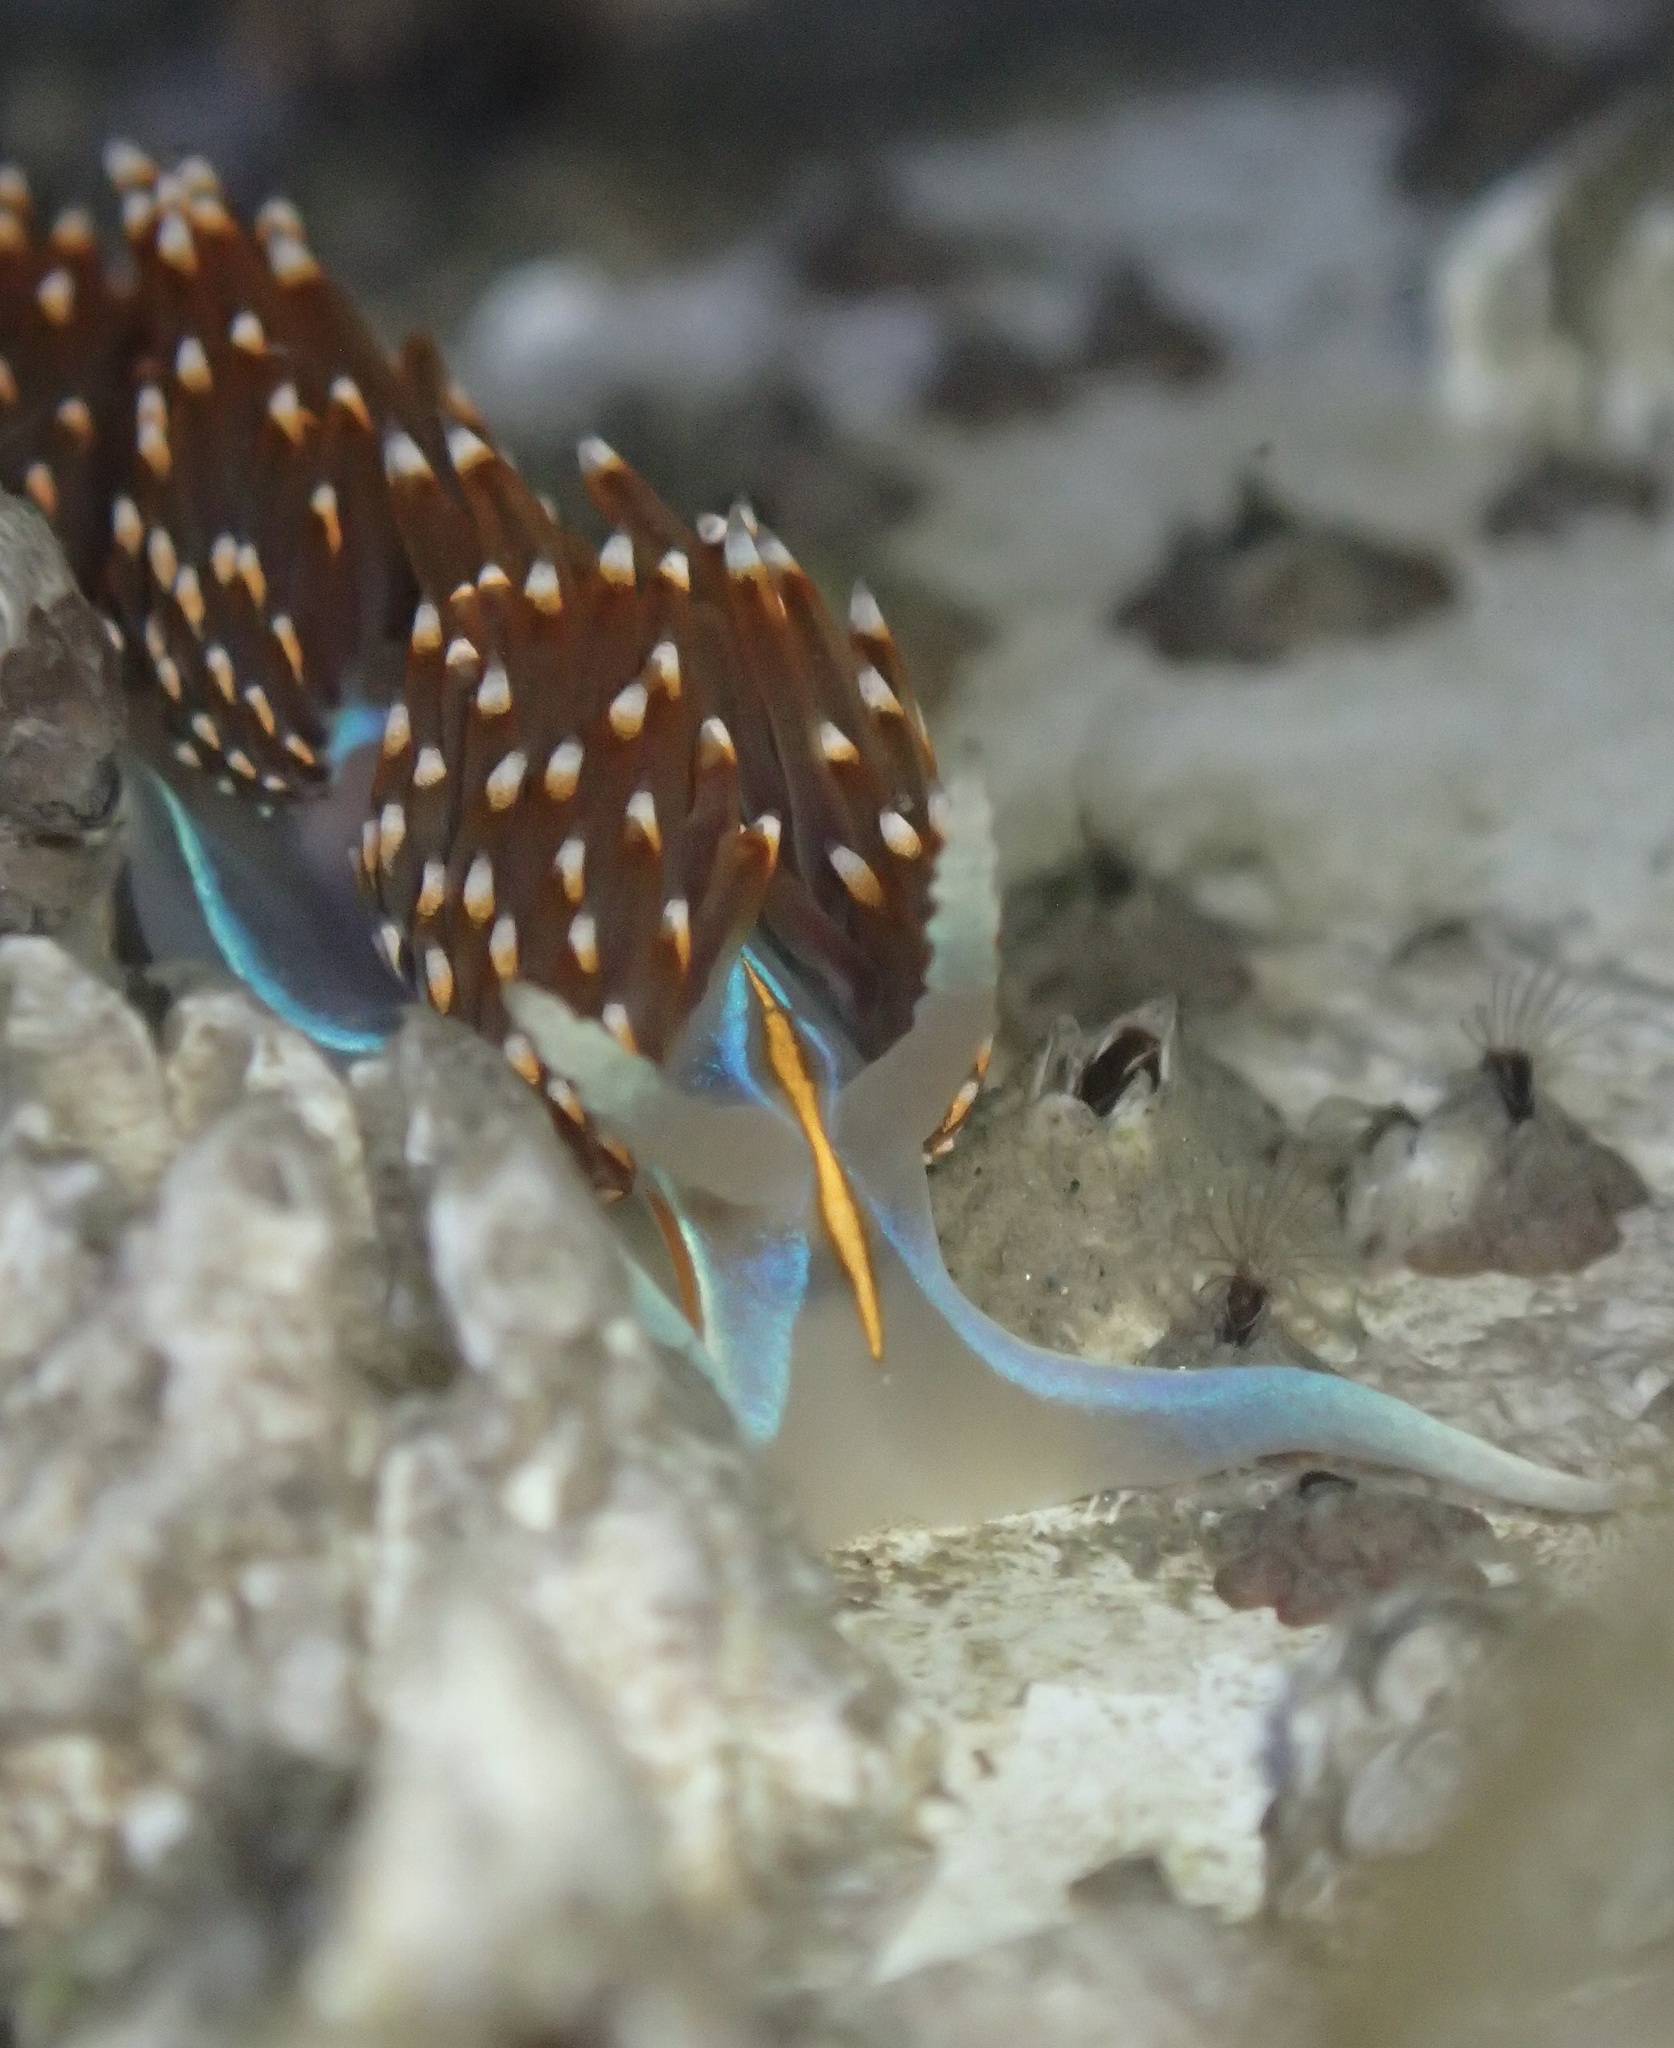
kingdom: Animalia
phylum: Mollusca
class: Gastropoda
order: Nudibranchia
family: Myrrhinidae
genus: Hermissenda
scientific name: Hermissenda opalescens
